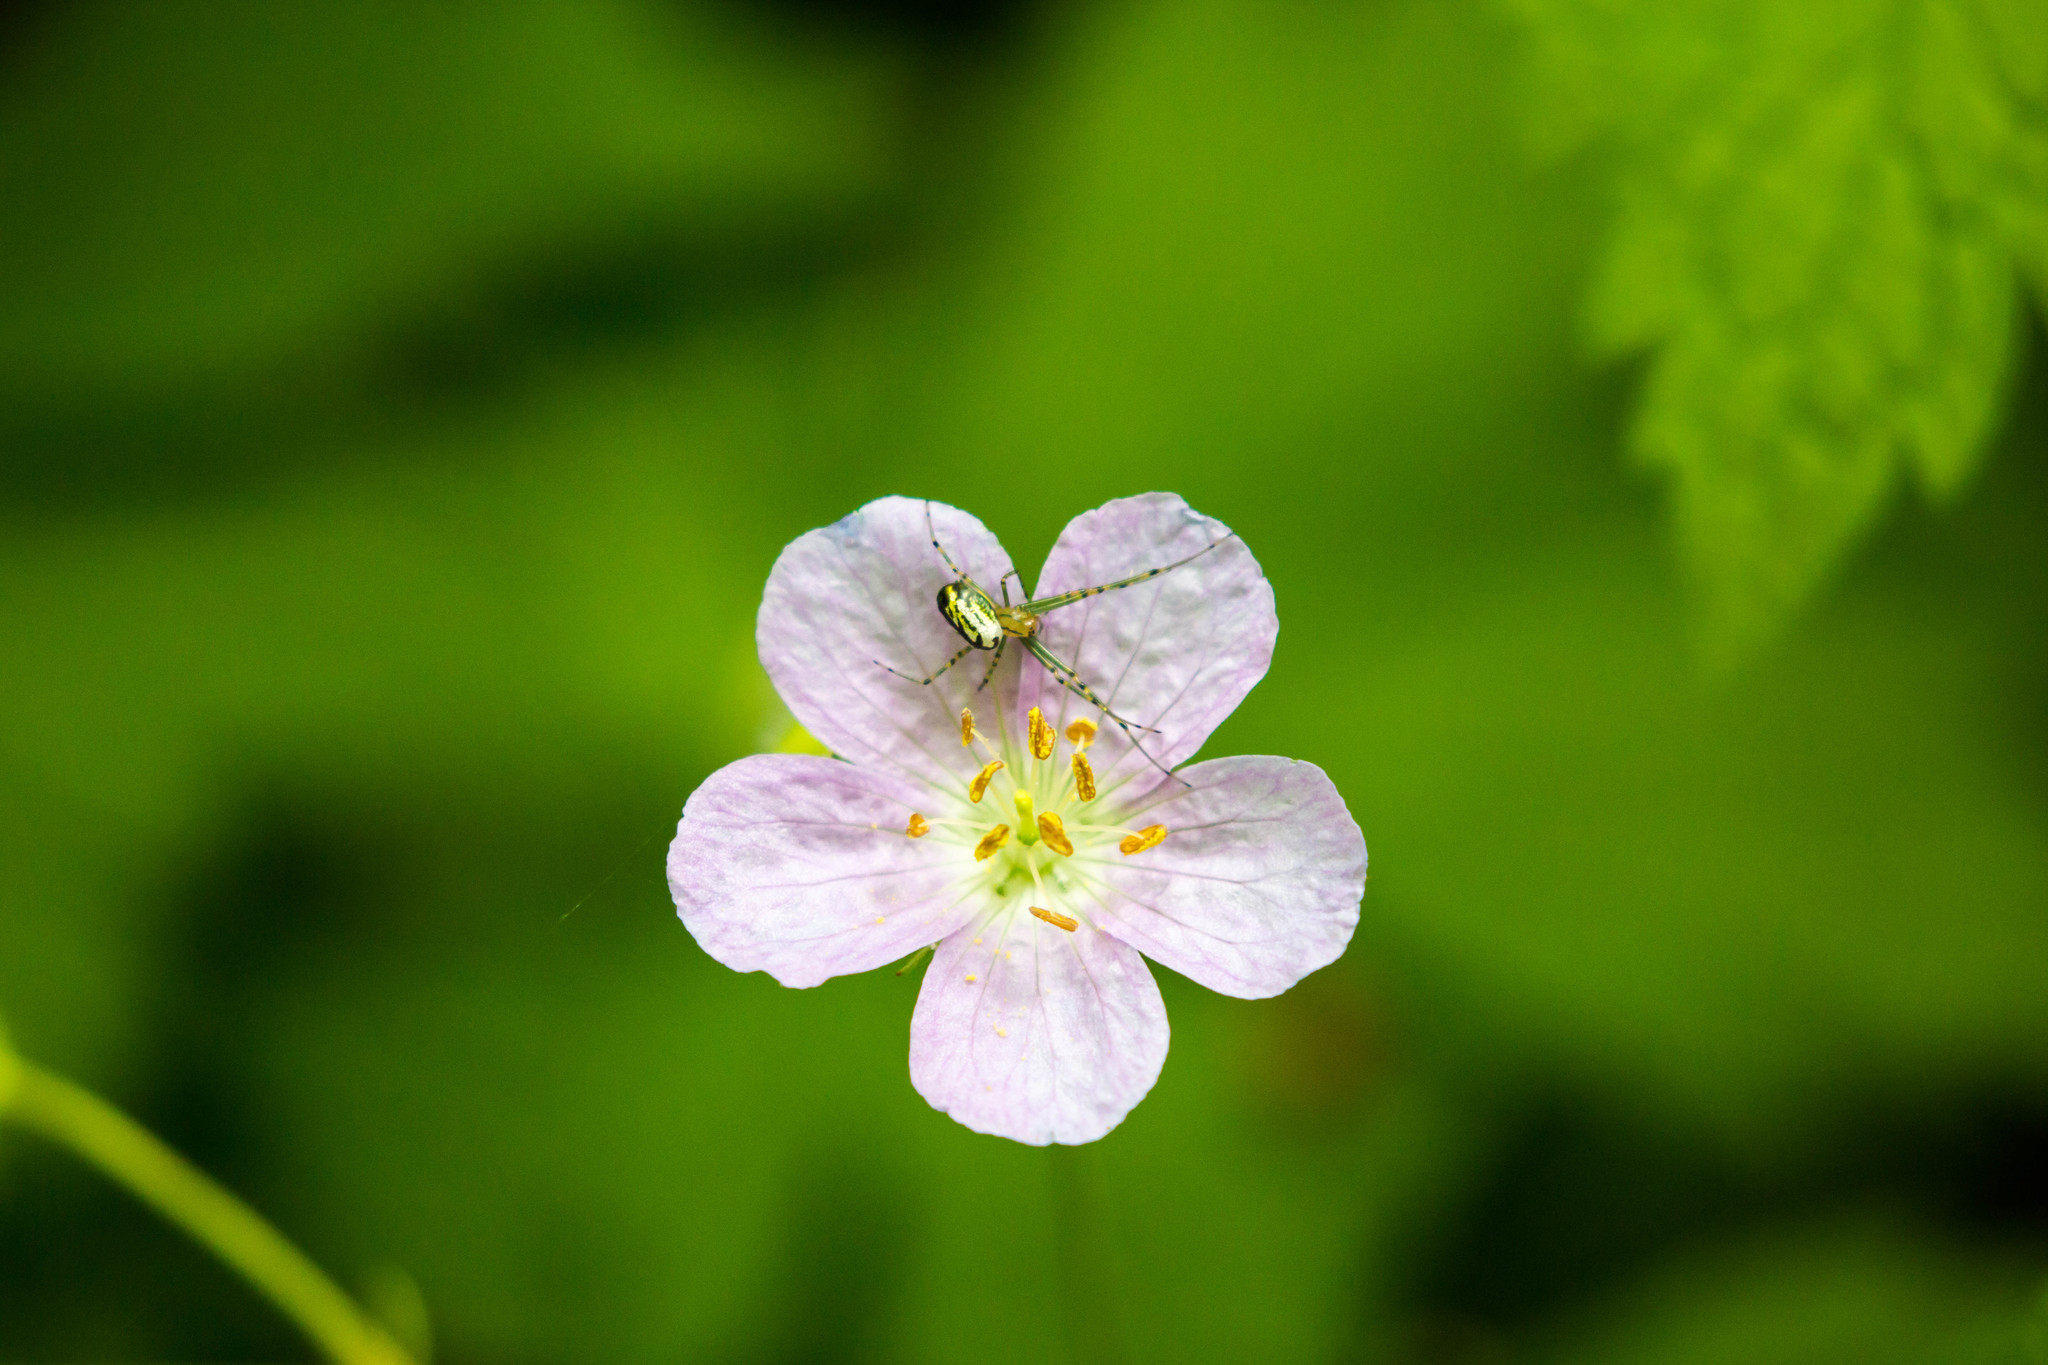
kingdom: Animalia
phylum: Arthropoda
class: Arachnida
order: Araneae
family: Tetragnathidae
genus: Leucauge
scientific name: Leucauge venusta
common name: Longjawed orb weavers
